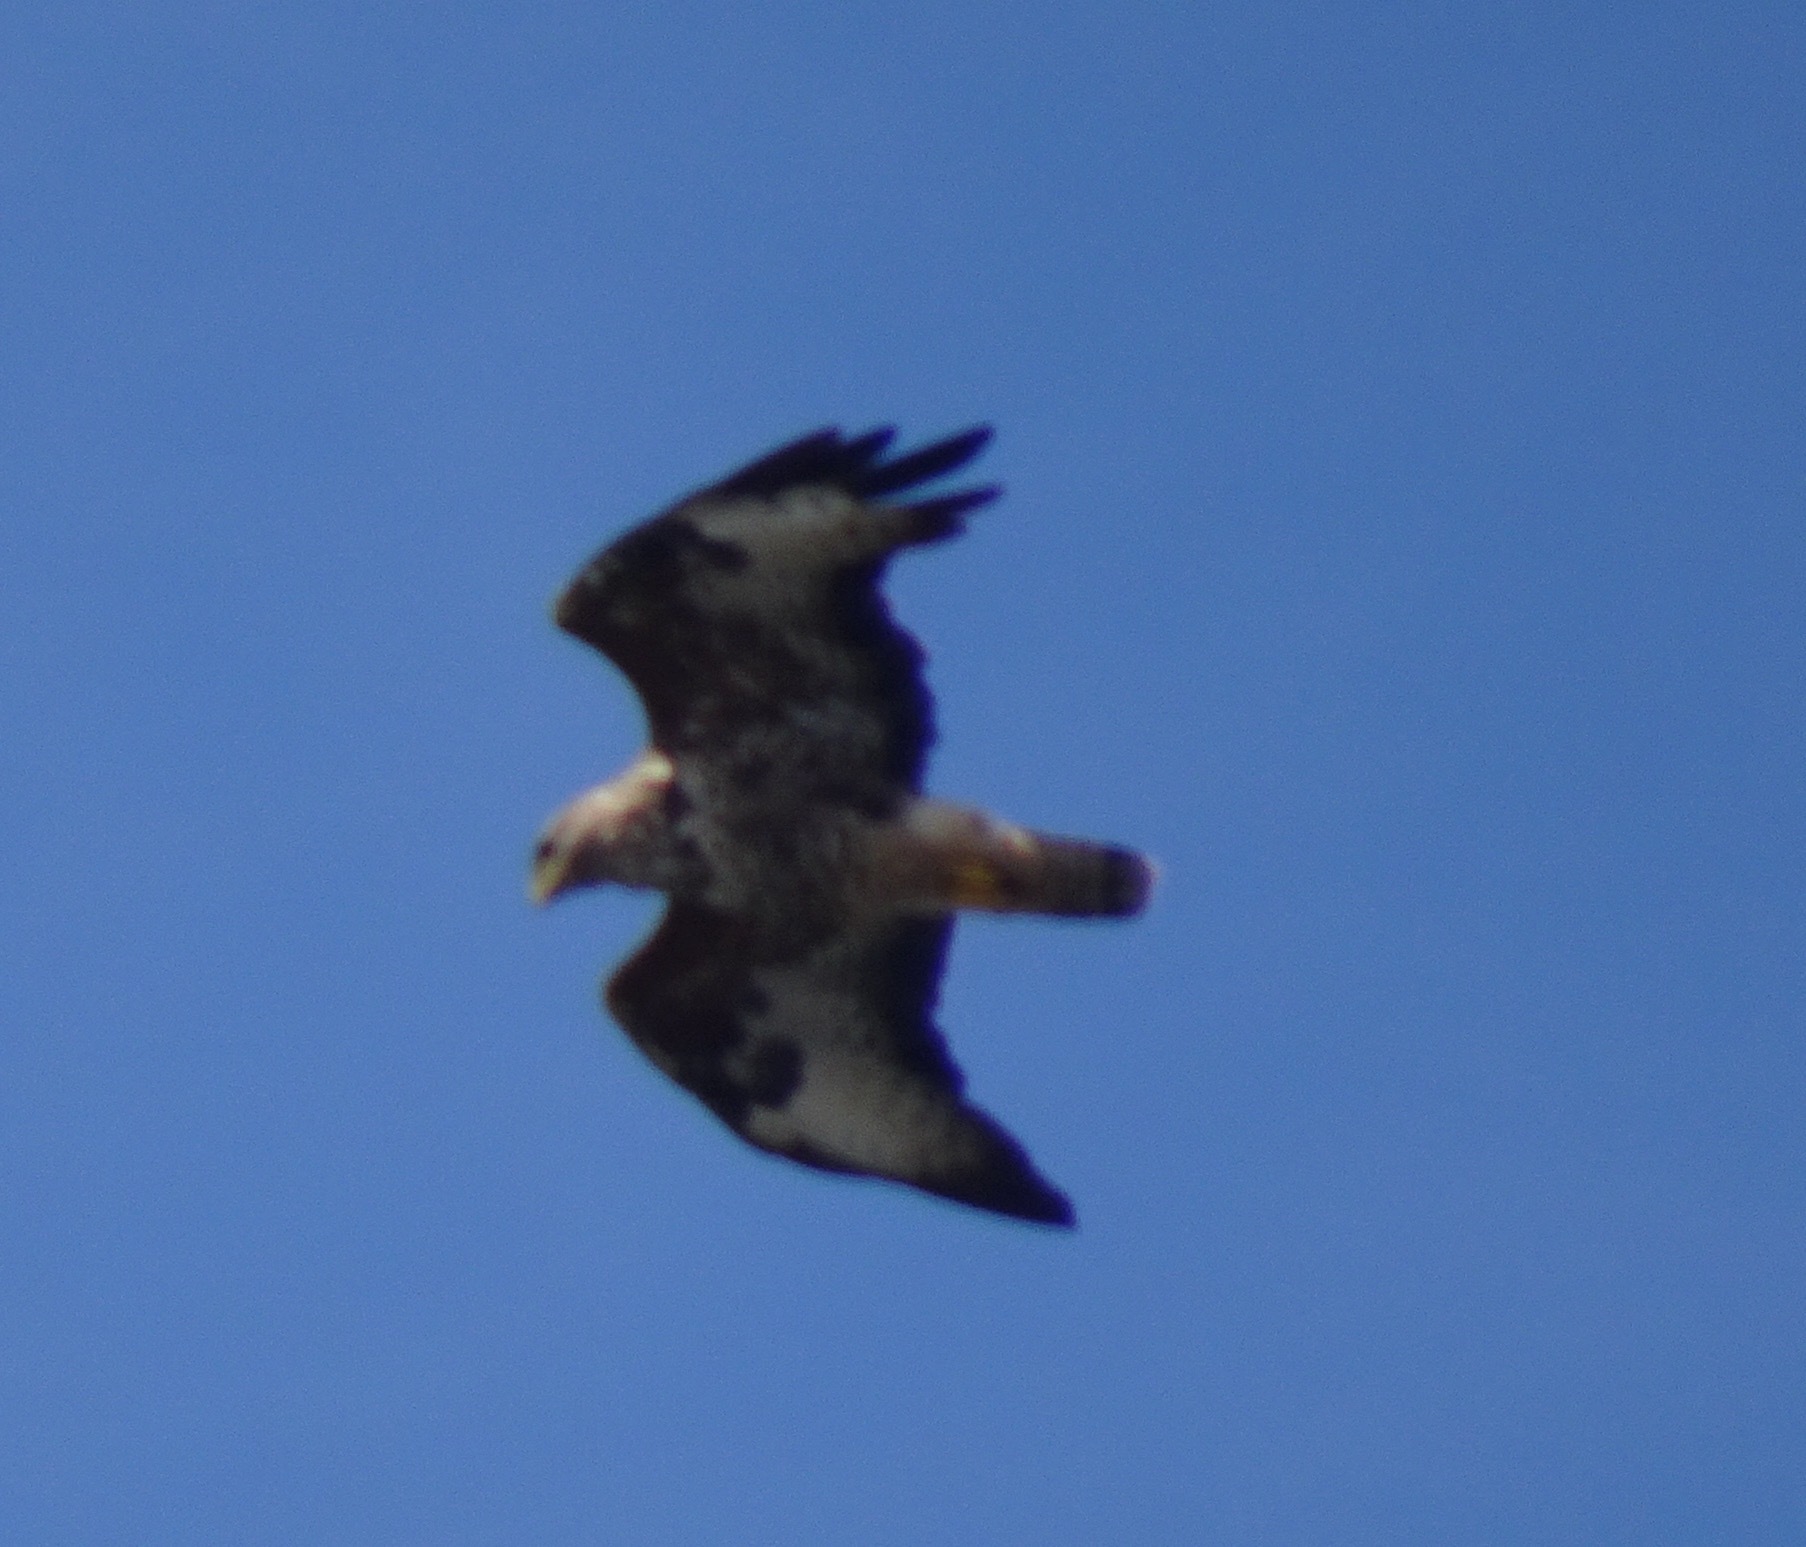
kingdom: Animalia
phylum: Chordata
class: Aves
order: Accipitriformes
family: Accipitridae
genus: Buteo
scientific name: Buteo buteo
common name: Common buzzard
